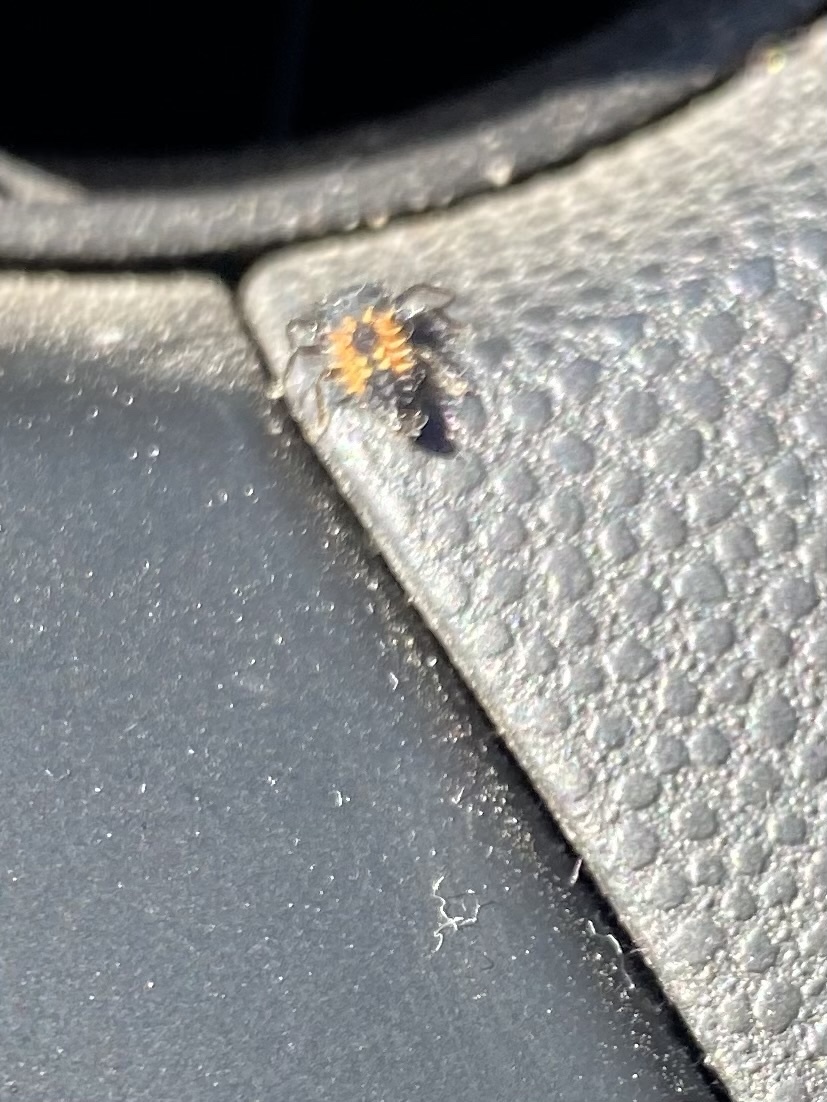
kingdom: Animalia
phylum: Arthropoda
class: Insecta
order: Coleoptera
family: Coccinellidae
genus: Harmonia
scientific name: Harmonia axyridis
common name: Harlequin ladybird
